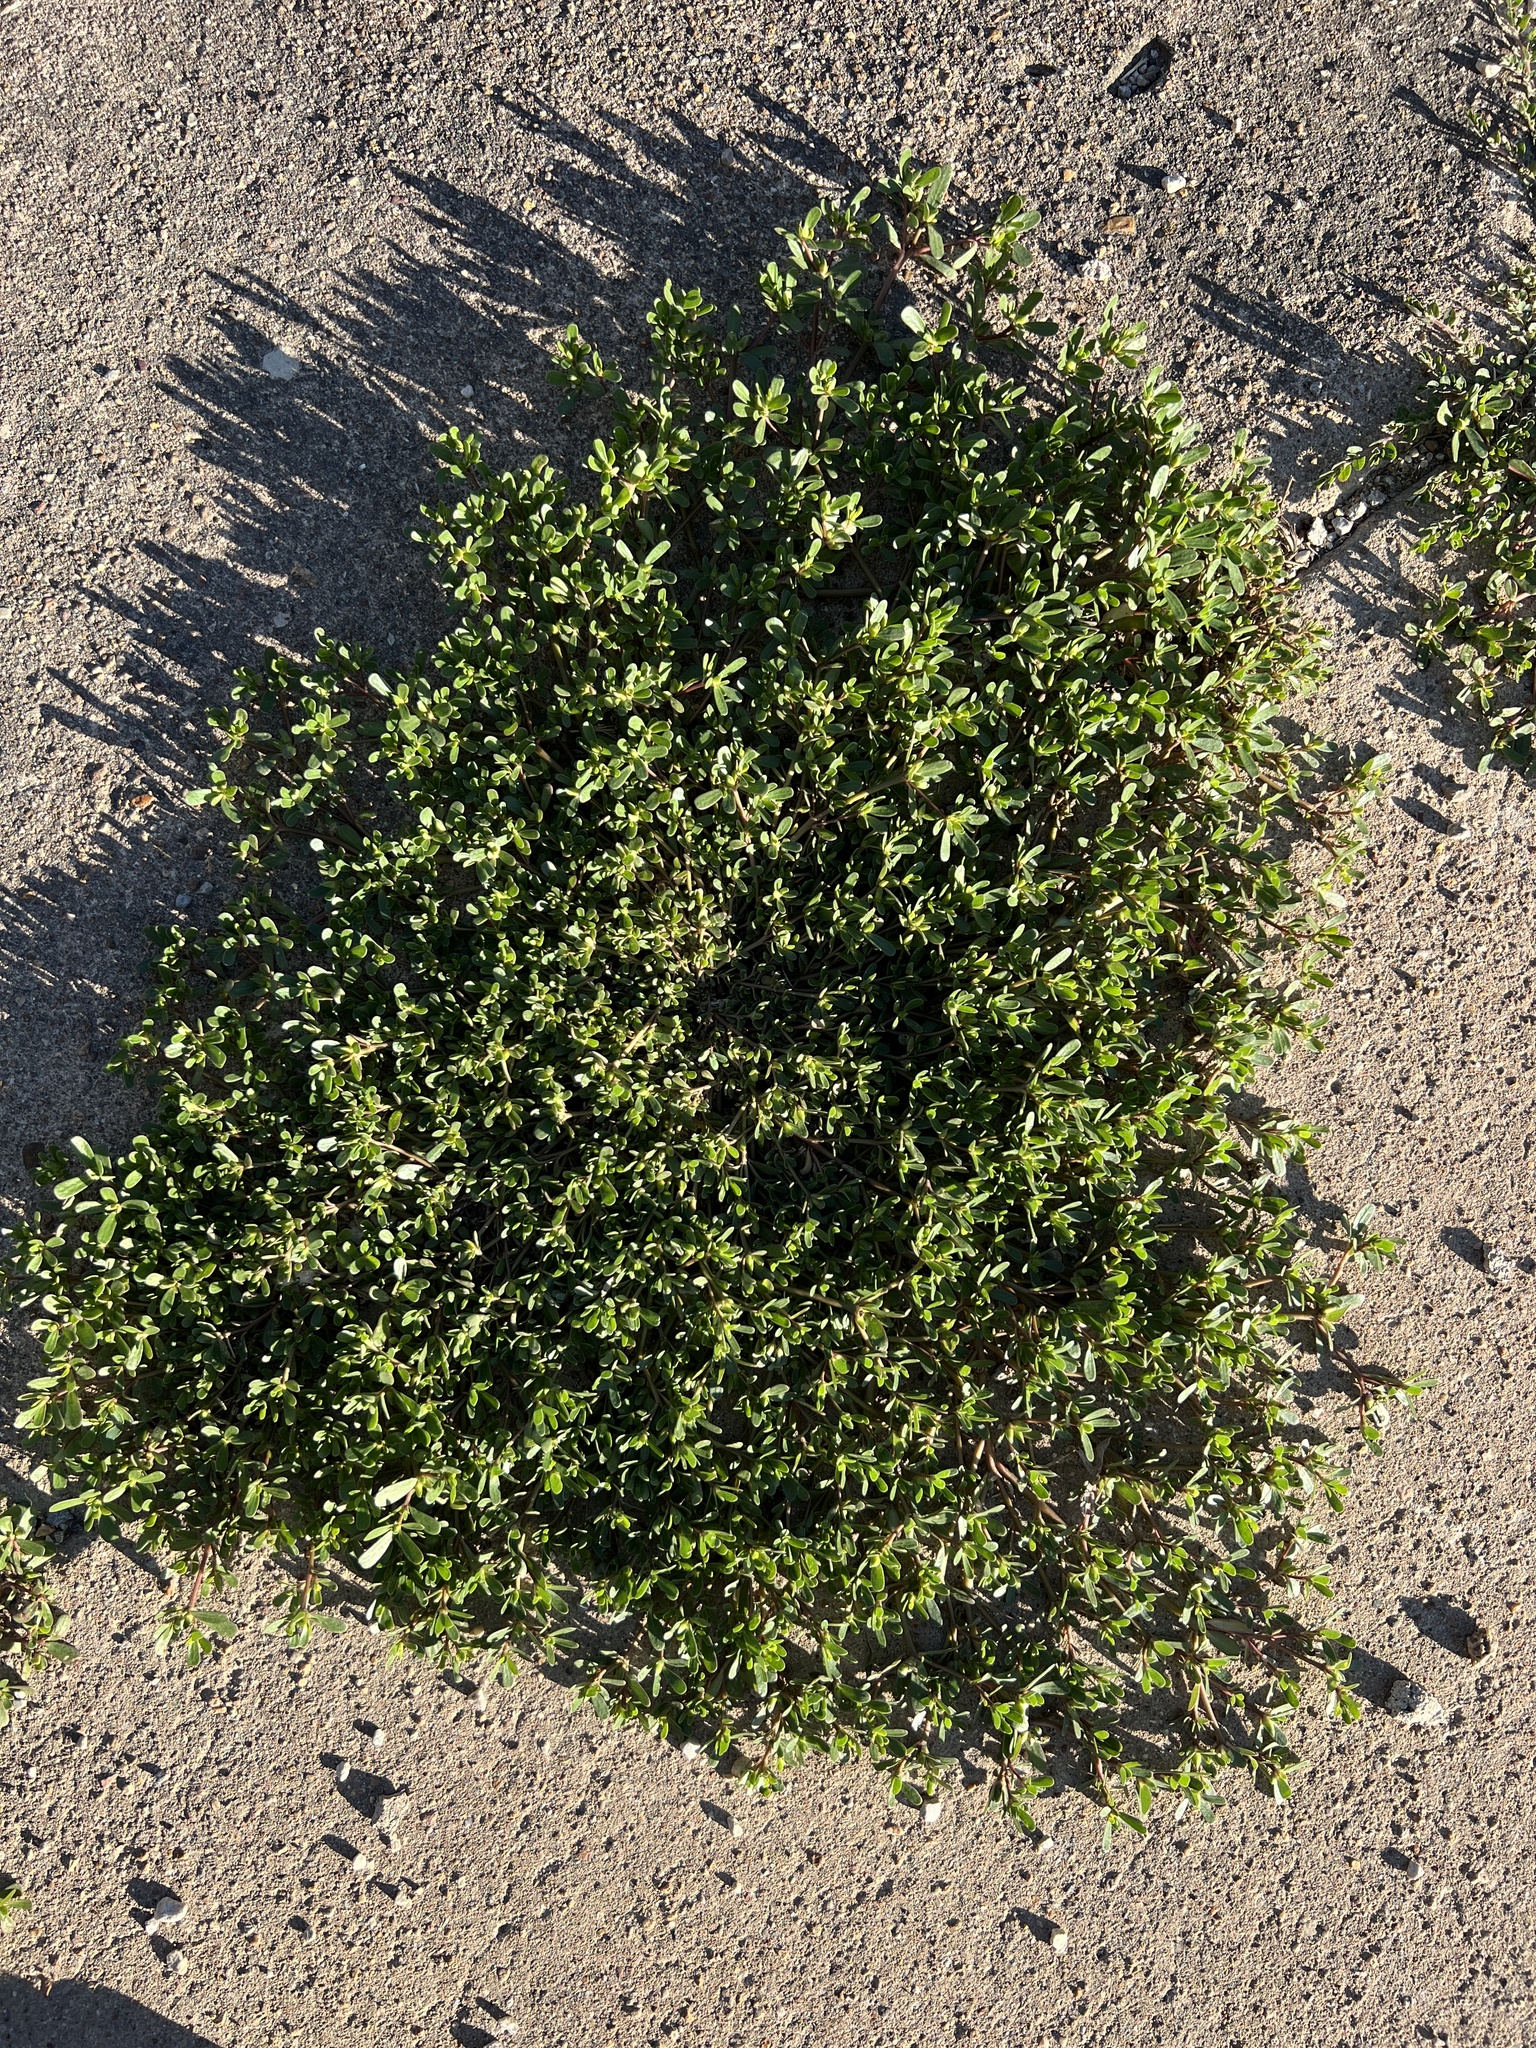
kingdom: Plantae
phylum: Tracheophyta
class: Magnoliopsida
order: Caryophyllales
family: Portulacaceae
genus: Portulaca
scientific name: Portulaca oleracea
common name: Common purslane
